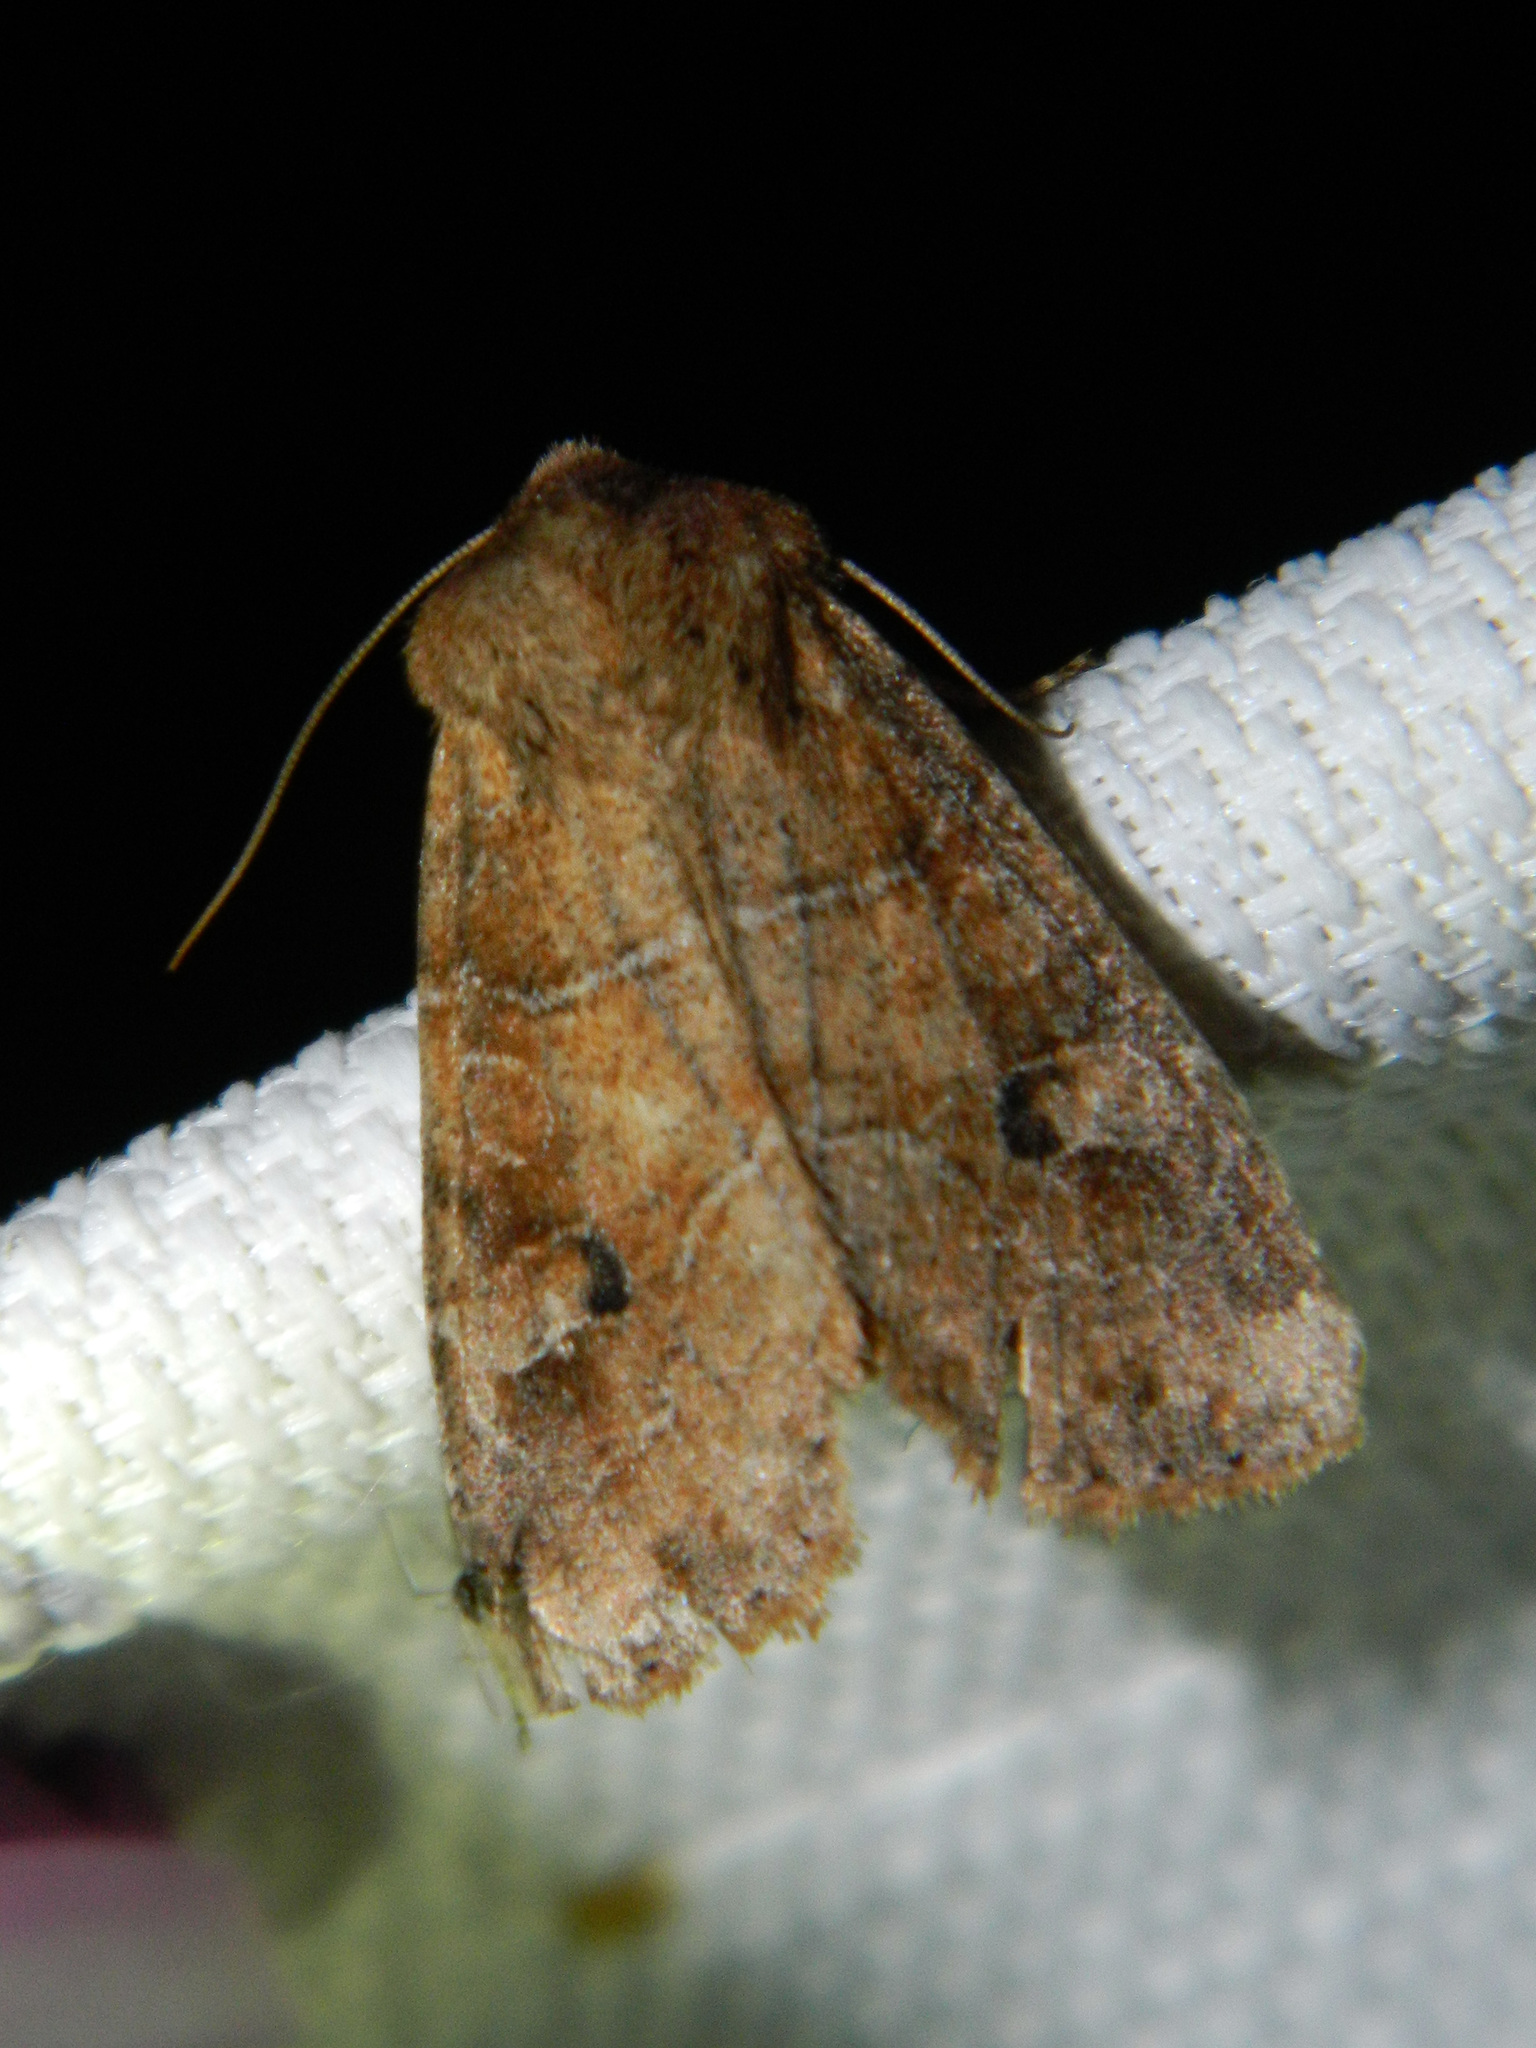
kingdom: Animalia
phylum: Arthropoda
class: Insecta
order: Lepidoptera
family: Noctuidae
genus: Crocigrapha
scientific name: Crocigrapha normani
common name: Norman's quaker
